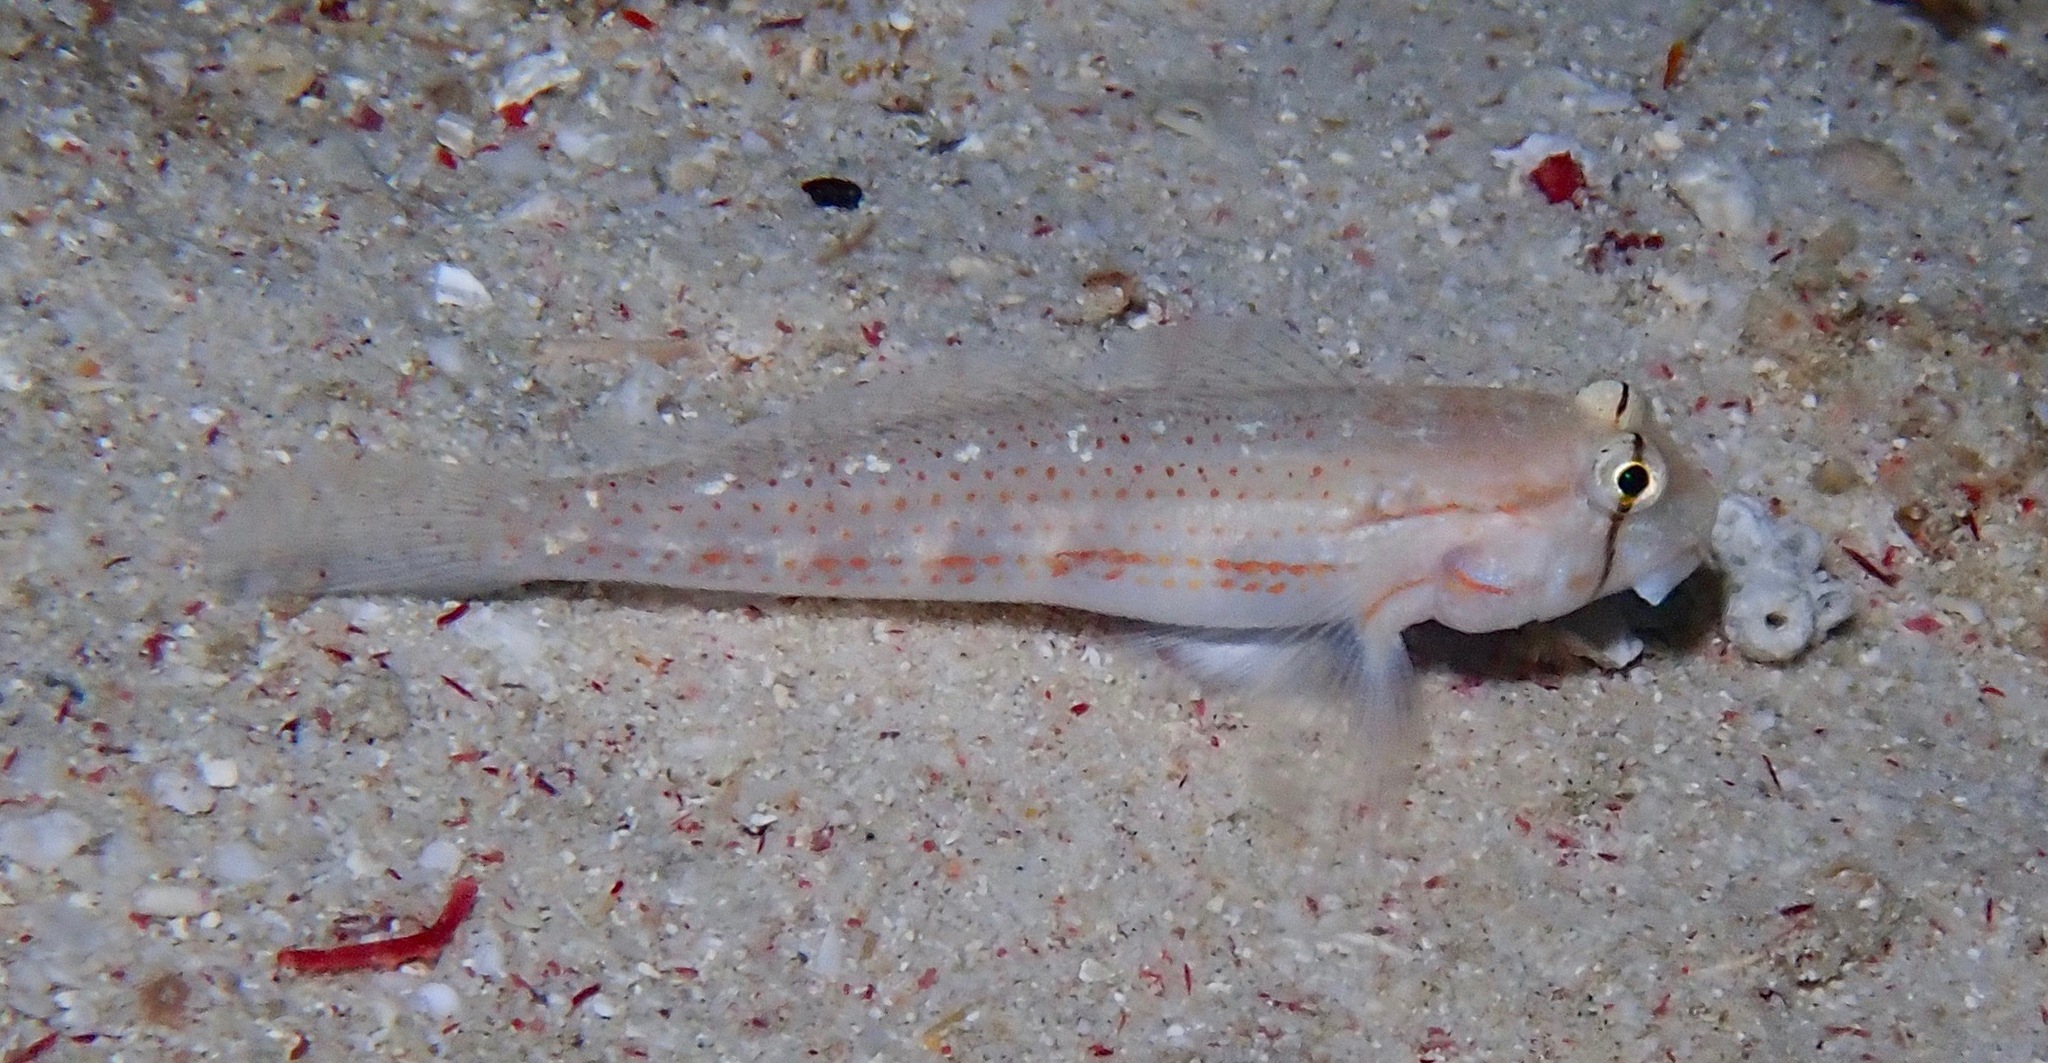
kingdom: Animalia
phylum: Chordata
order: Perciformes
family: Gobiidae
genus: Gnatholepis
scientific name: Gnatholepis cauerensis
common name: Bridled goby
